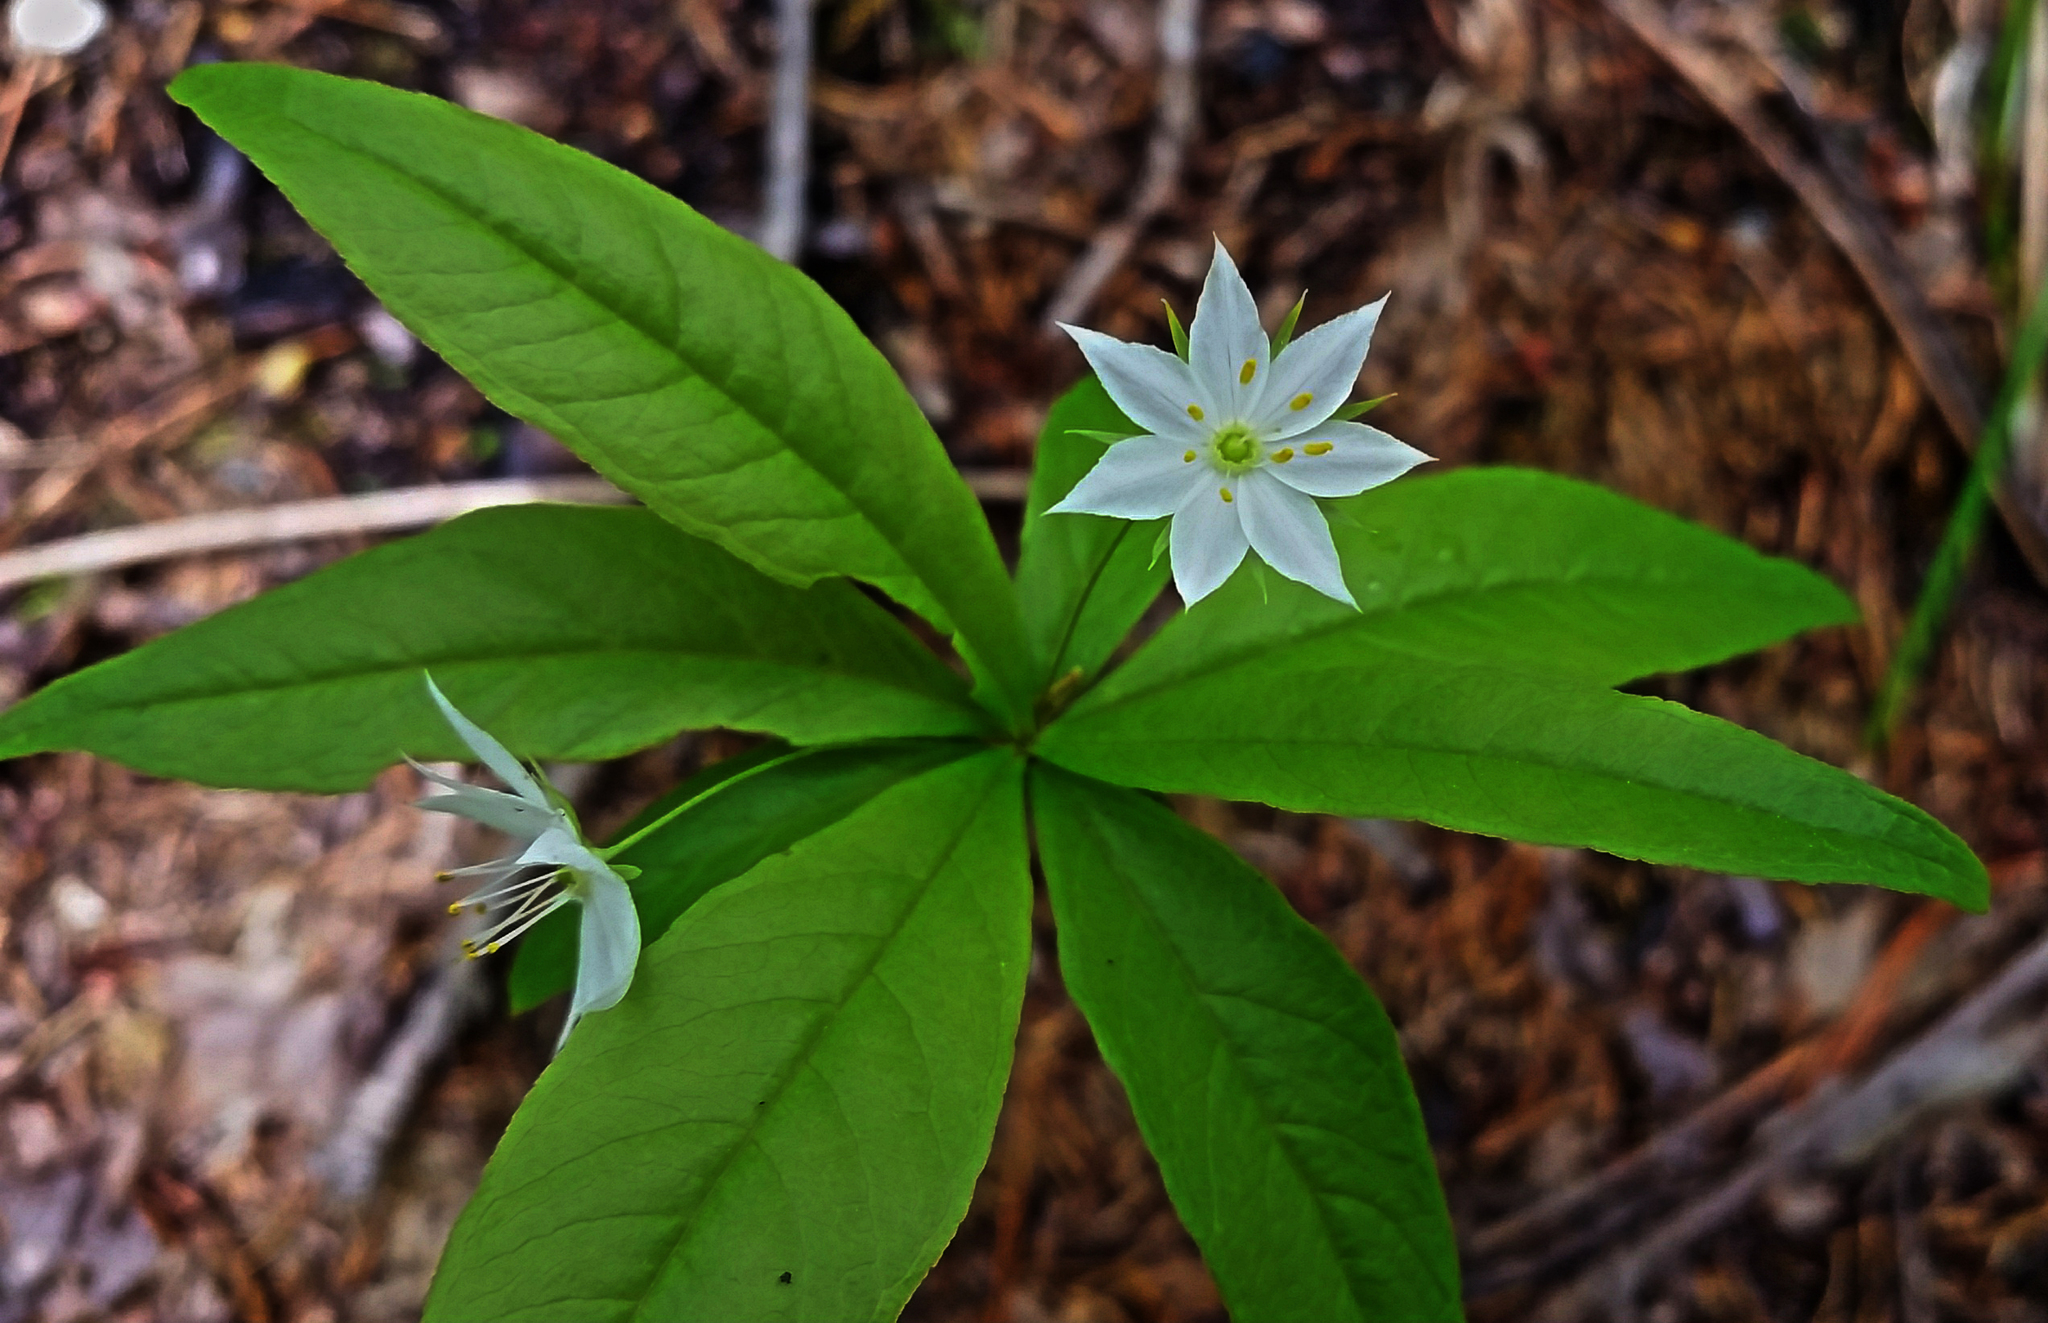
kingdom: Plantae
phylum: Tracheophyta
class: Magnoliopsida
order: Ericales
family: Primulaceae
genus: Lysimachia
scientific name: Lysimachia borealis
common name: American starflower
